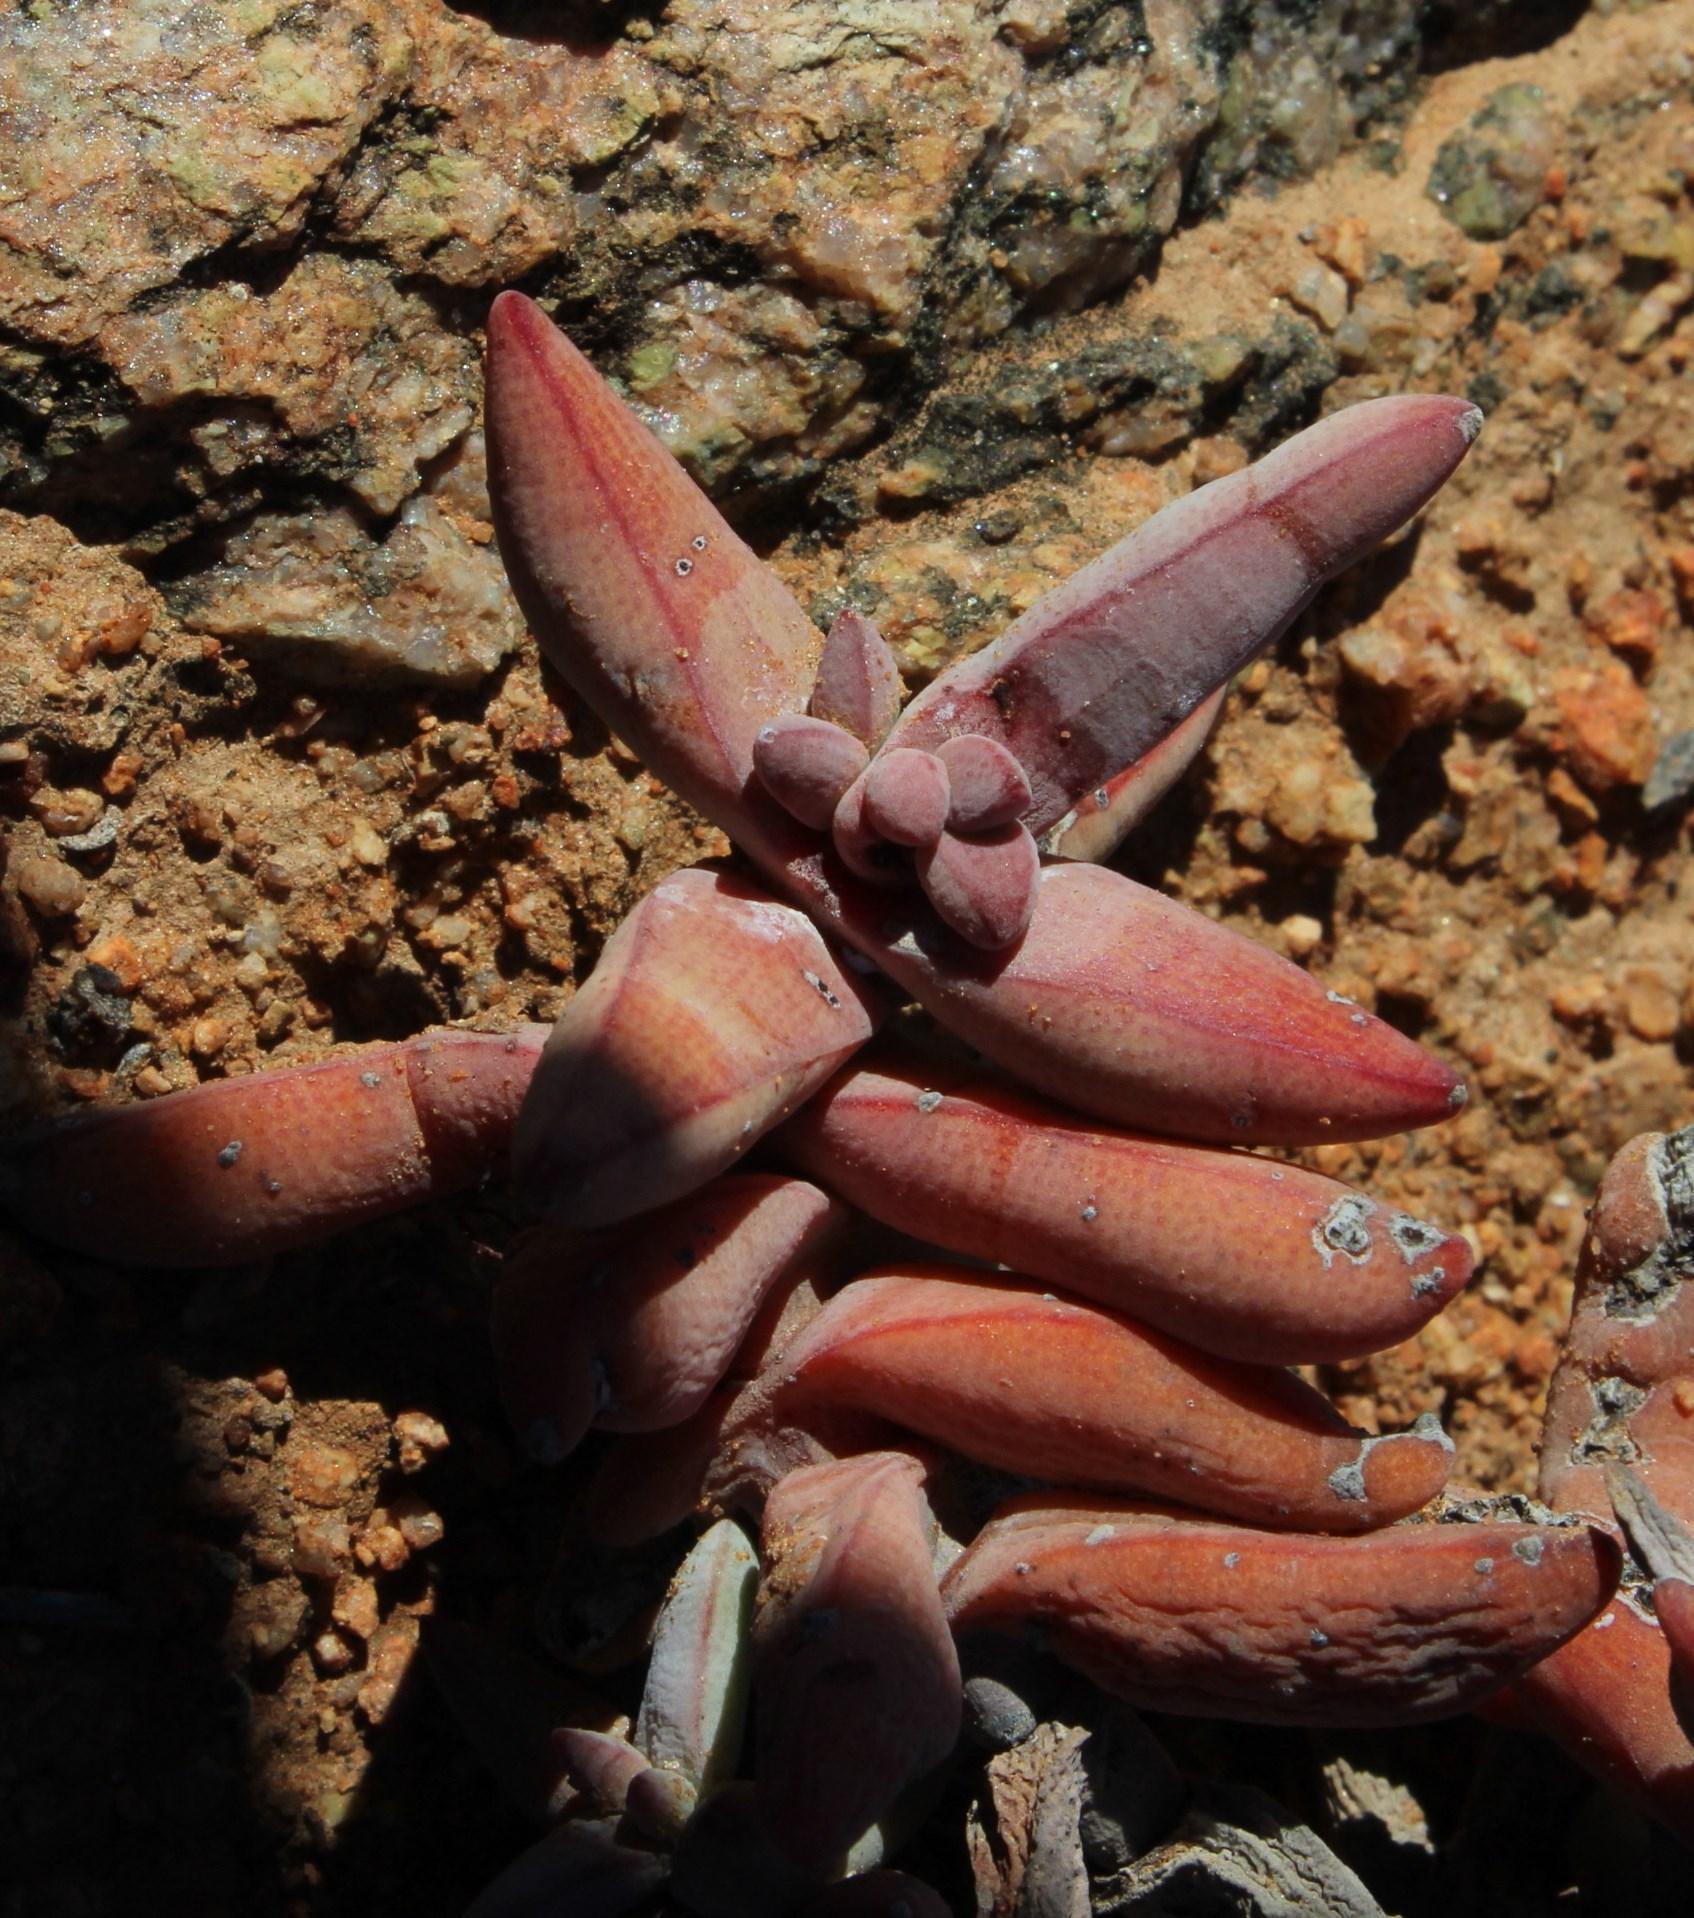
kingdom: Plantae
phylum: Tracheophyta
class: Magnoliopsida
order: Saxifragales
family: Crassulaceae
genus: Crassula
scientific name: Crassula grisea
